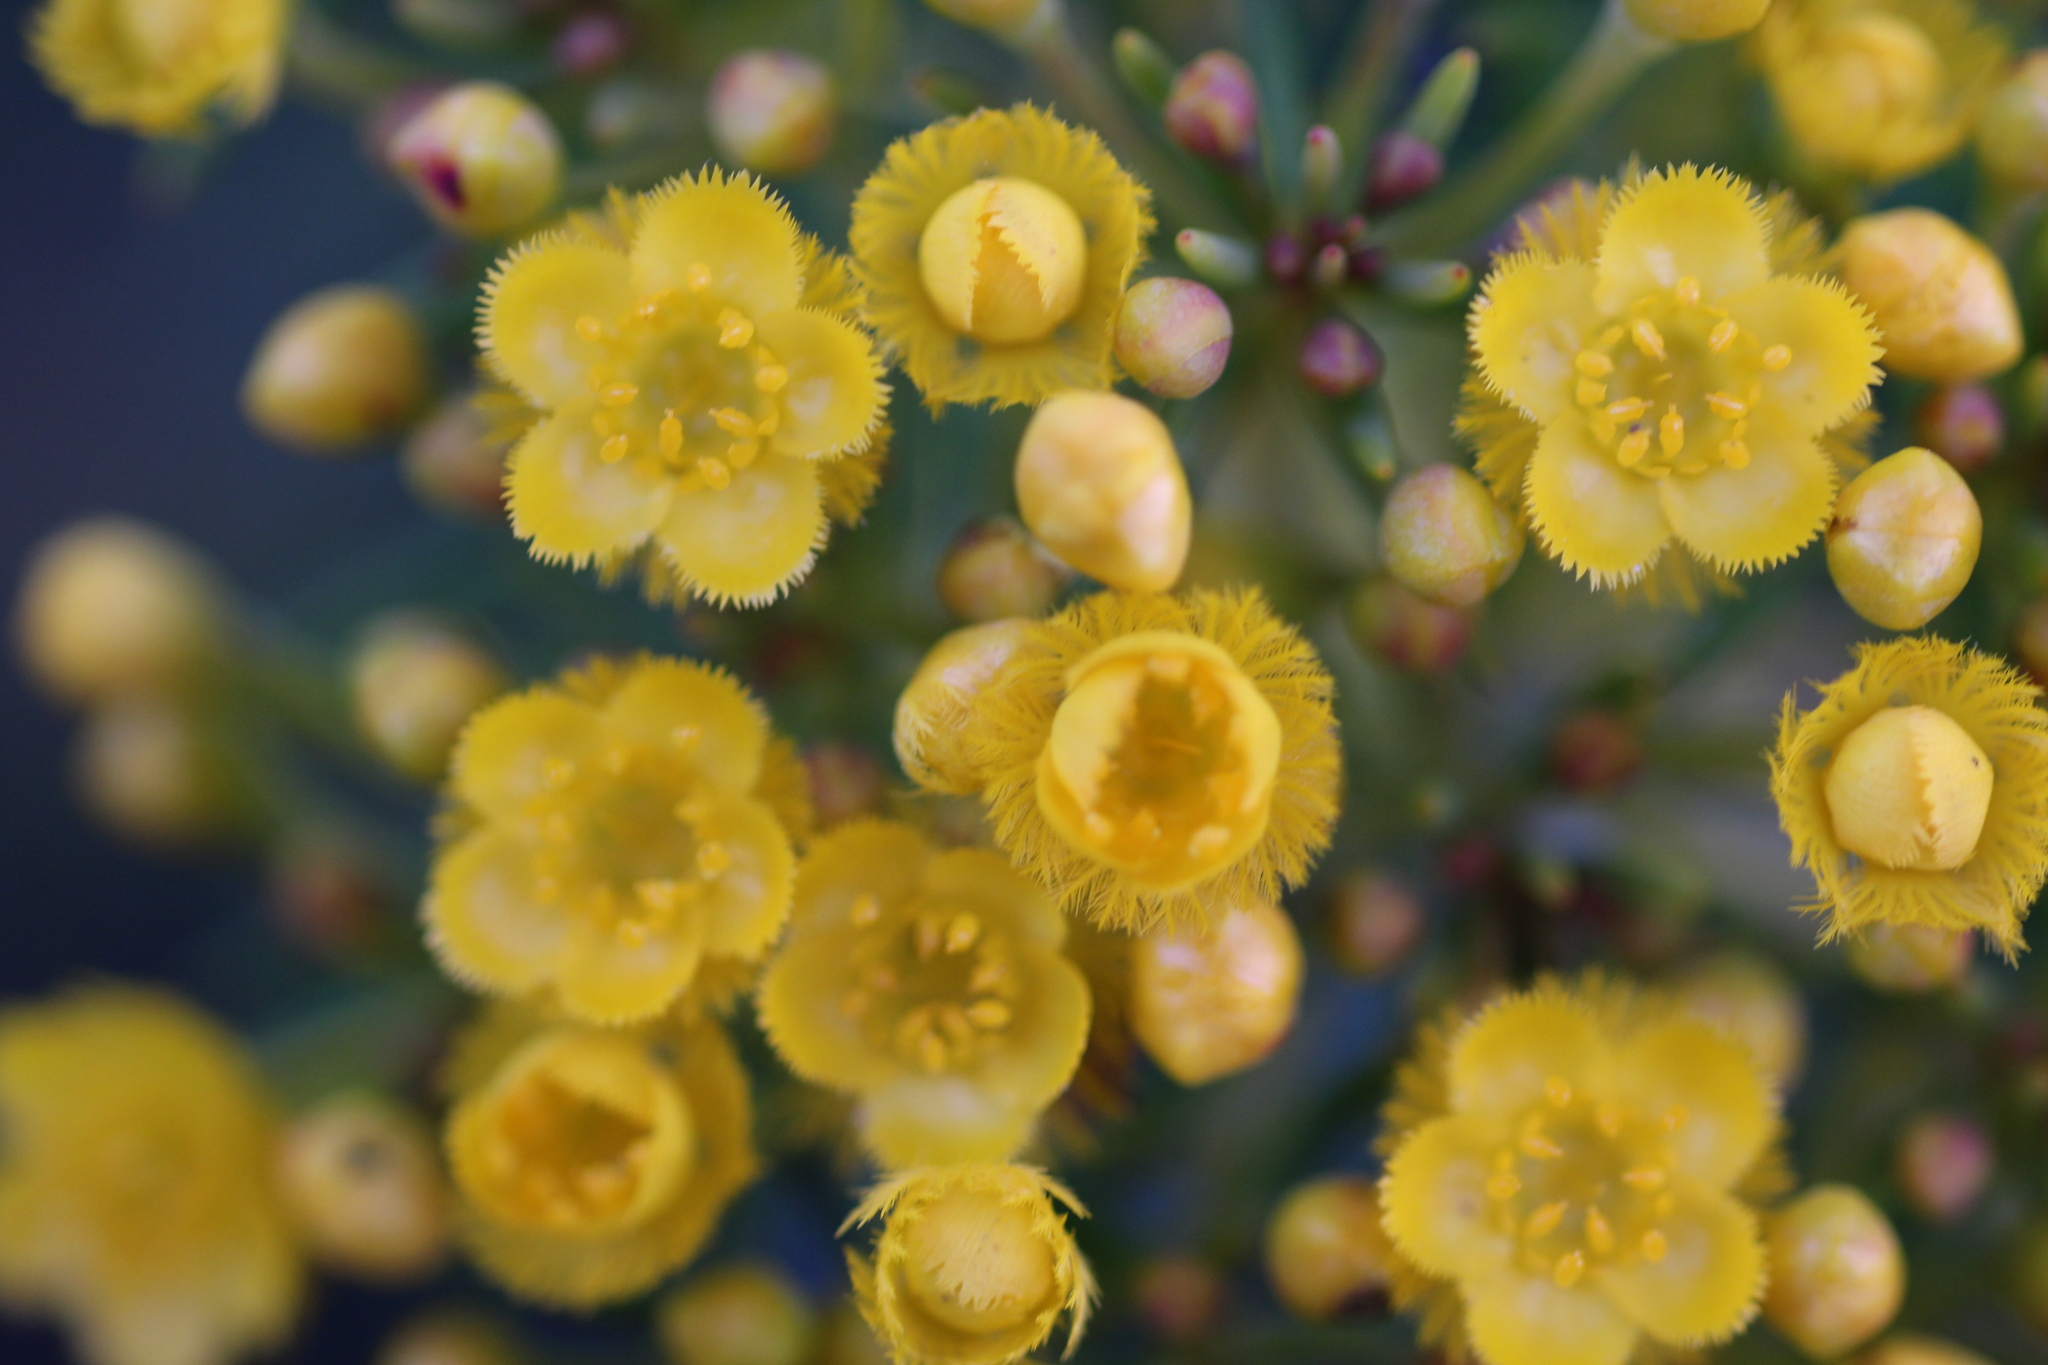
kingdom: Plantae
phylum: Tracheophyta
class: Magnoliopsida
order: Myrtales
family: Myrtaceae
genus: Verticordia
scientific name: Verticordia aurea
